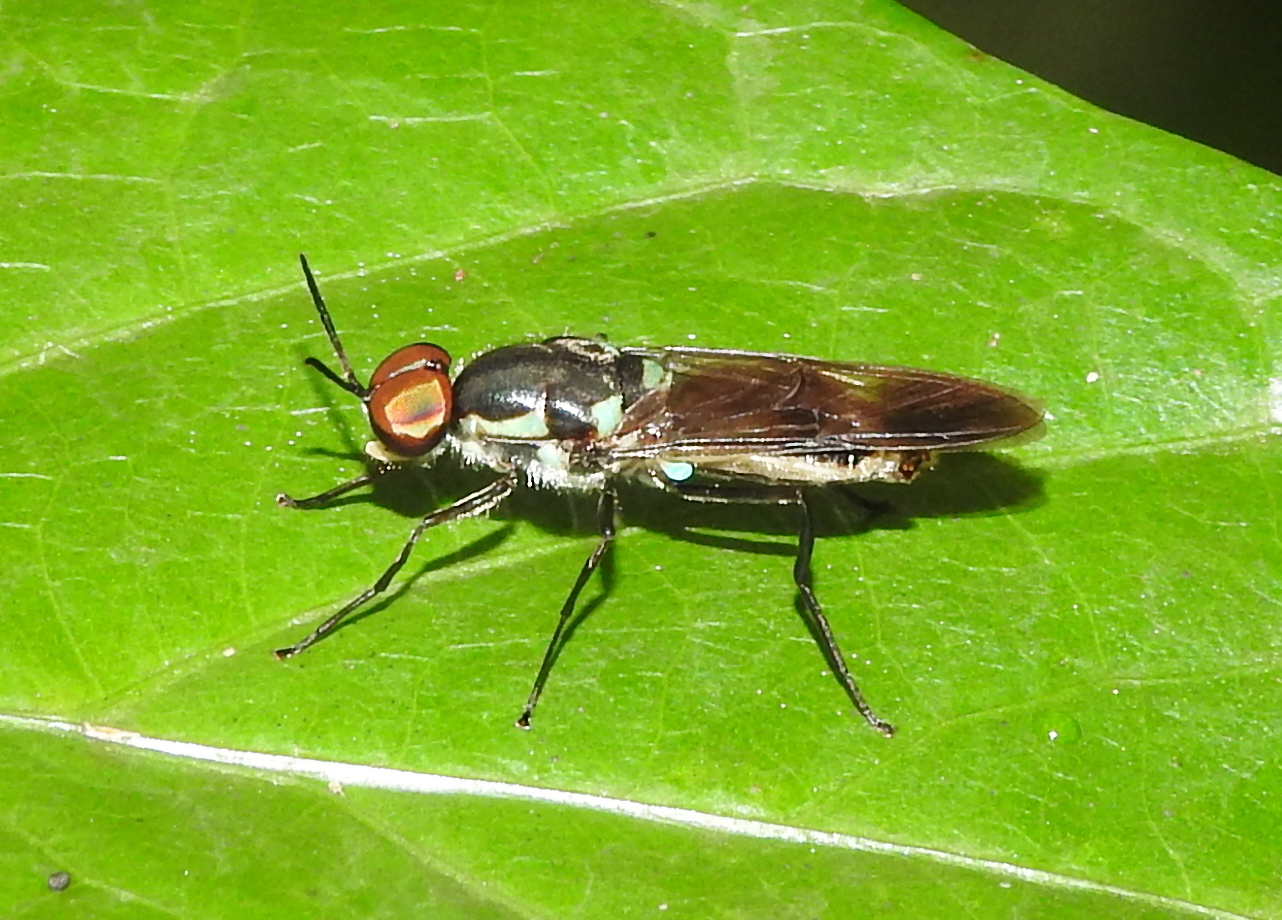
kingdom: Animalia
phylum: Arthropoda
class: Insecta
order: Diptera
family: Stratiomyidae
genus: Eudmeta
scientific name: Eudmeta marginata
